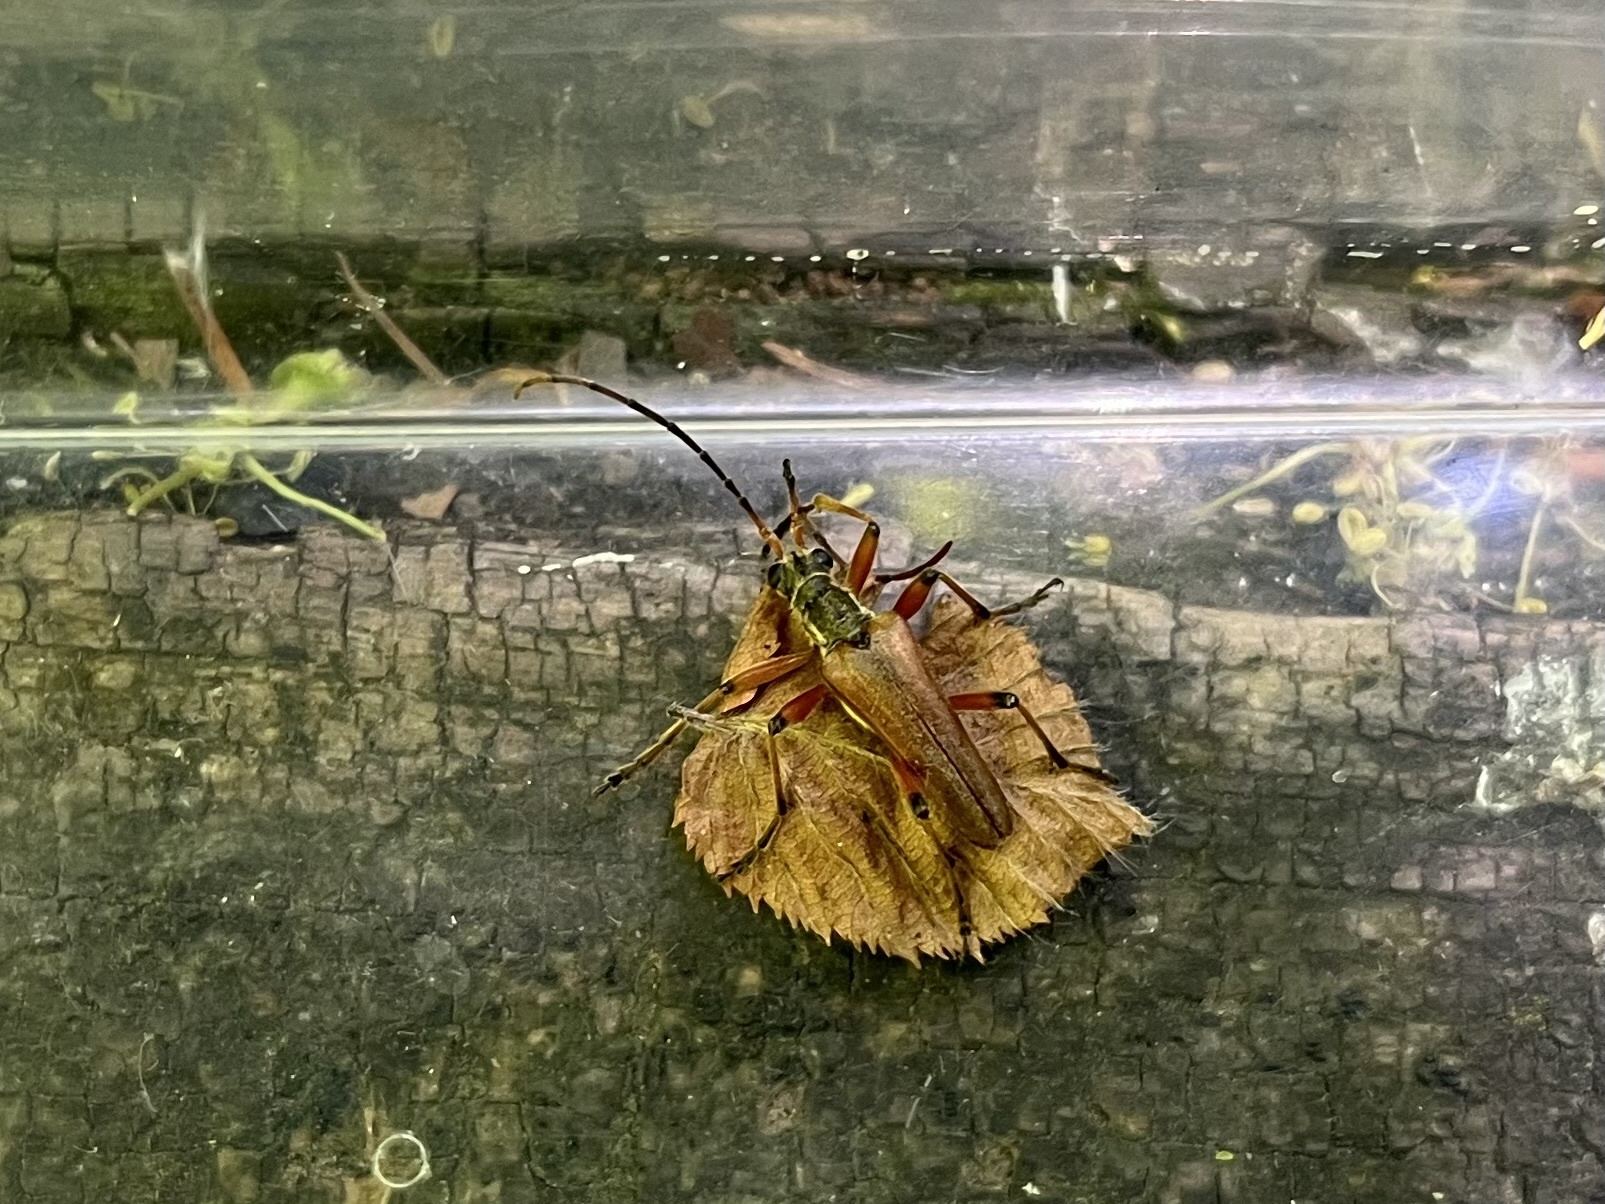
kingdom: Animalia
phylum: Arthropoda
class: Insecta
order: Coleoptera
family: Cerambycidae
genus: Stenocorus
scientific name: Stenocorus meridianus
